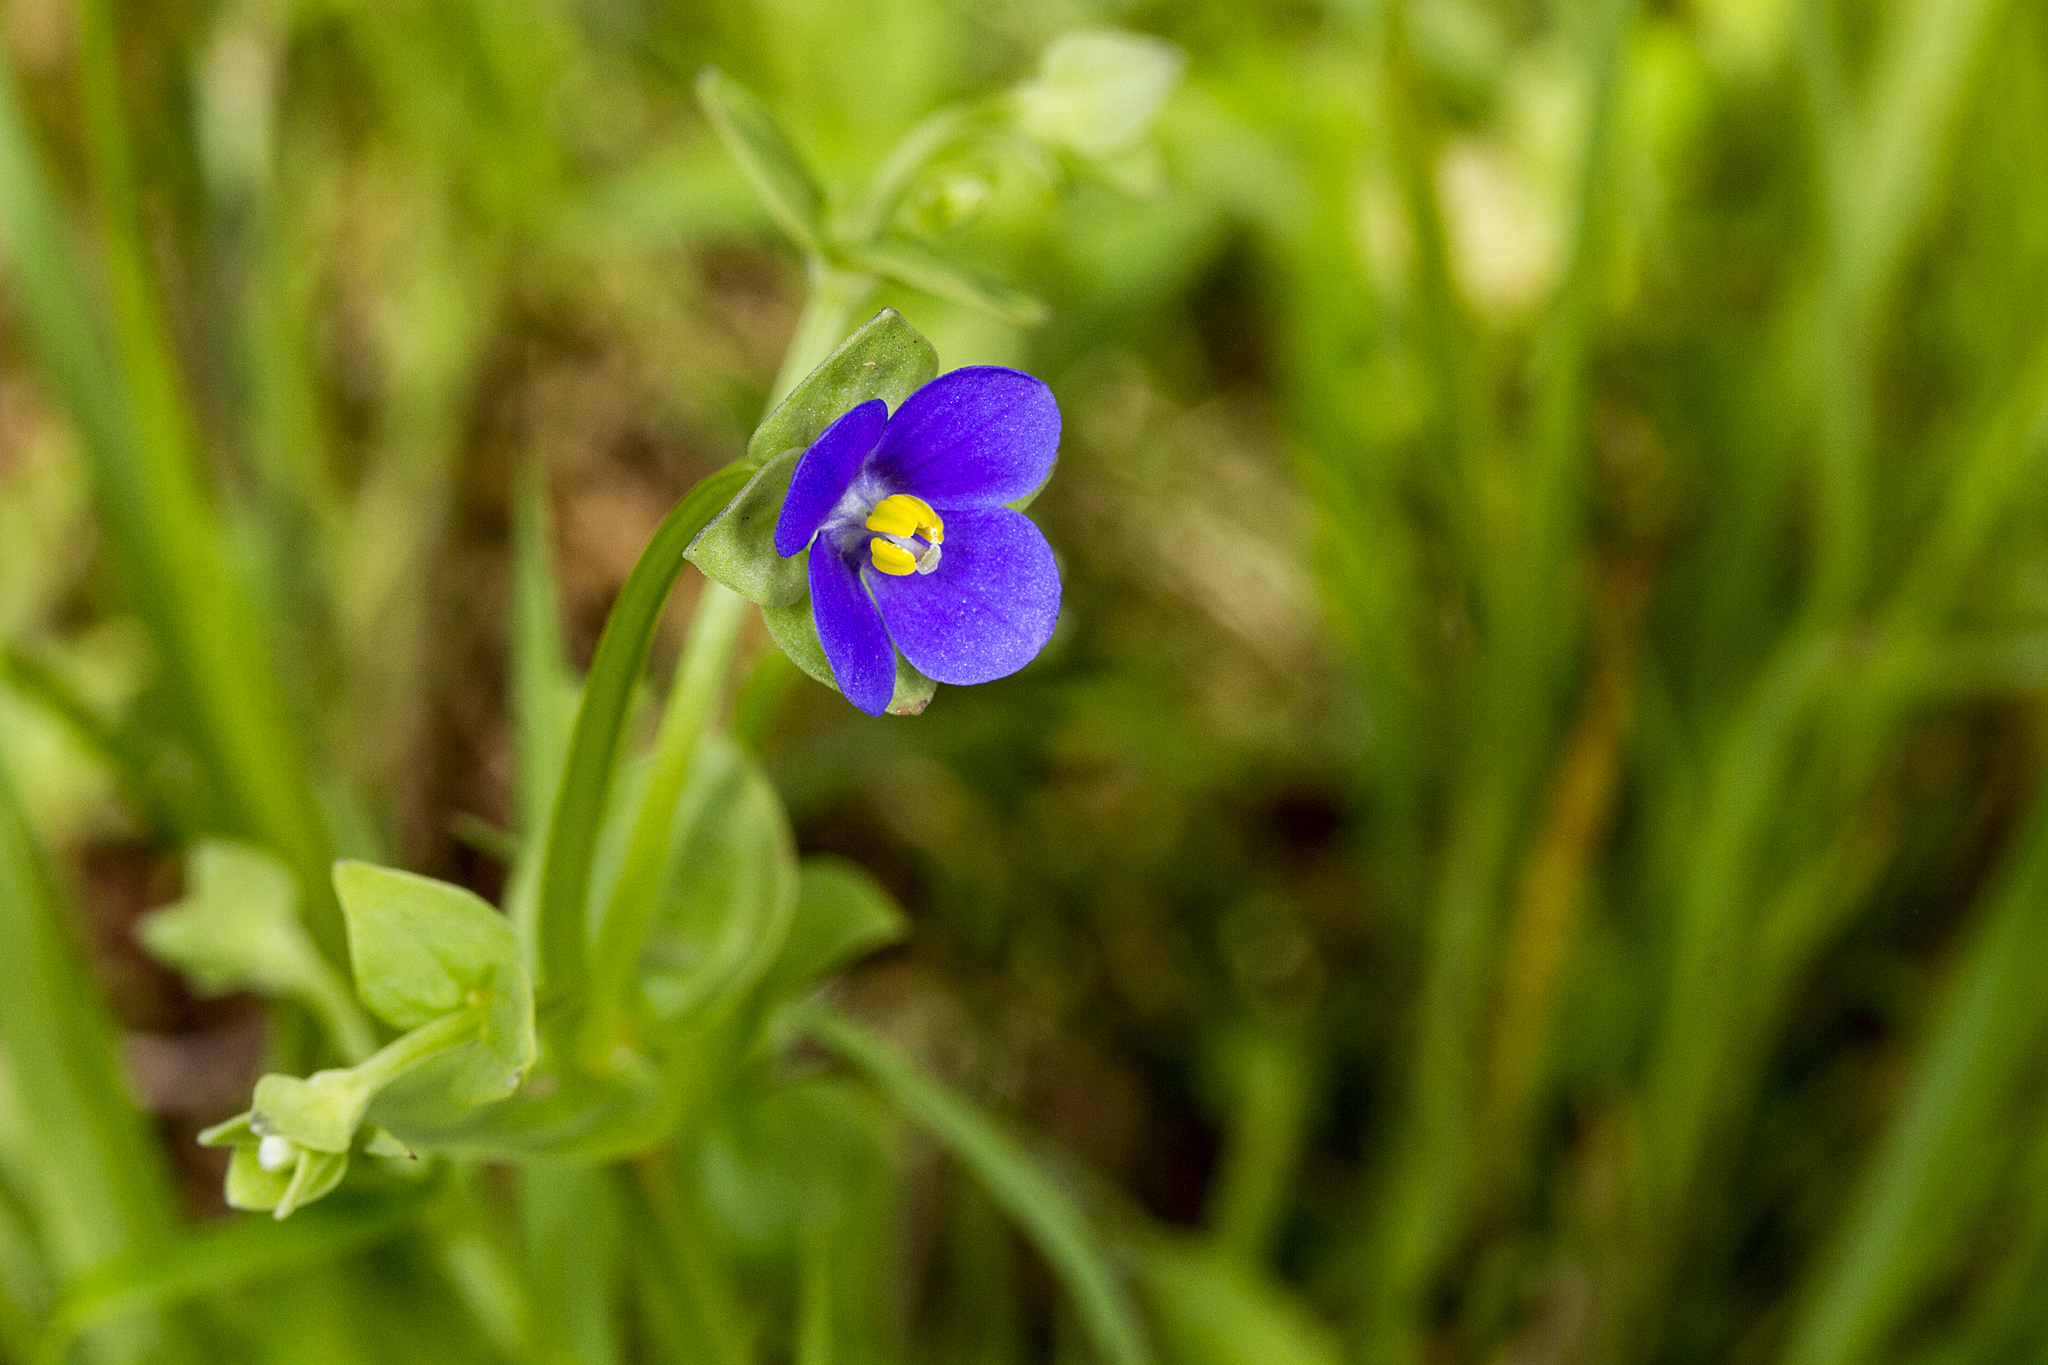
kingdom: Plantae
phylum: Tracheophyta
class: Magnoliopsida
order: Gentianales
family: Gentianaceae
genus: Exacum
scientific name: Exacum lawii
